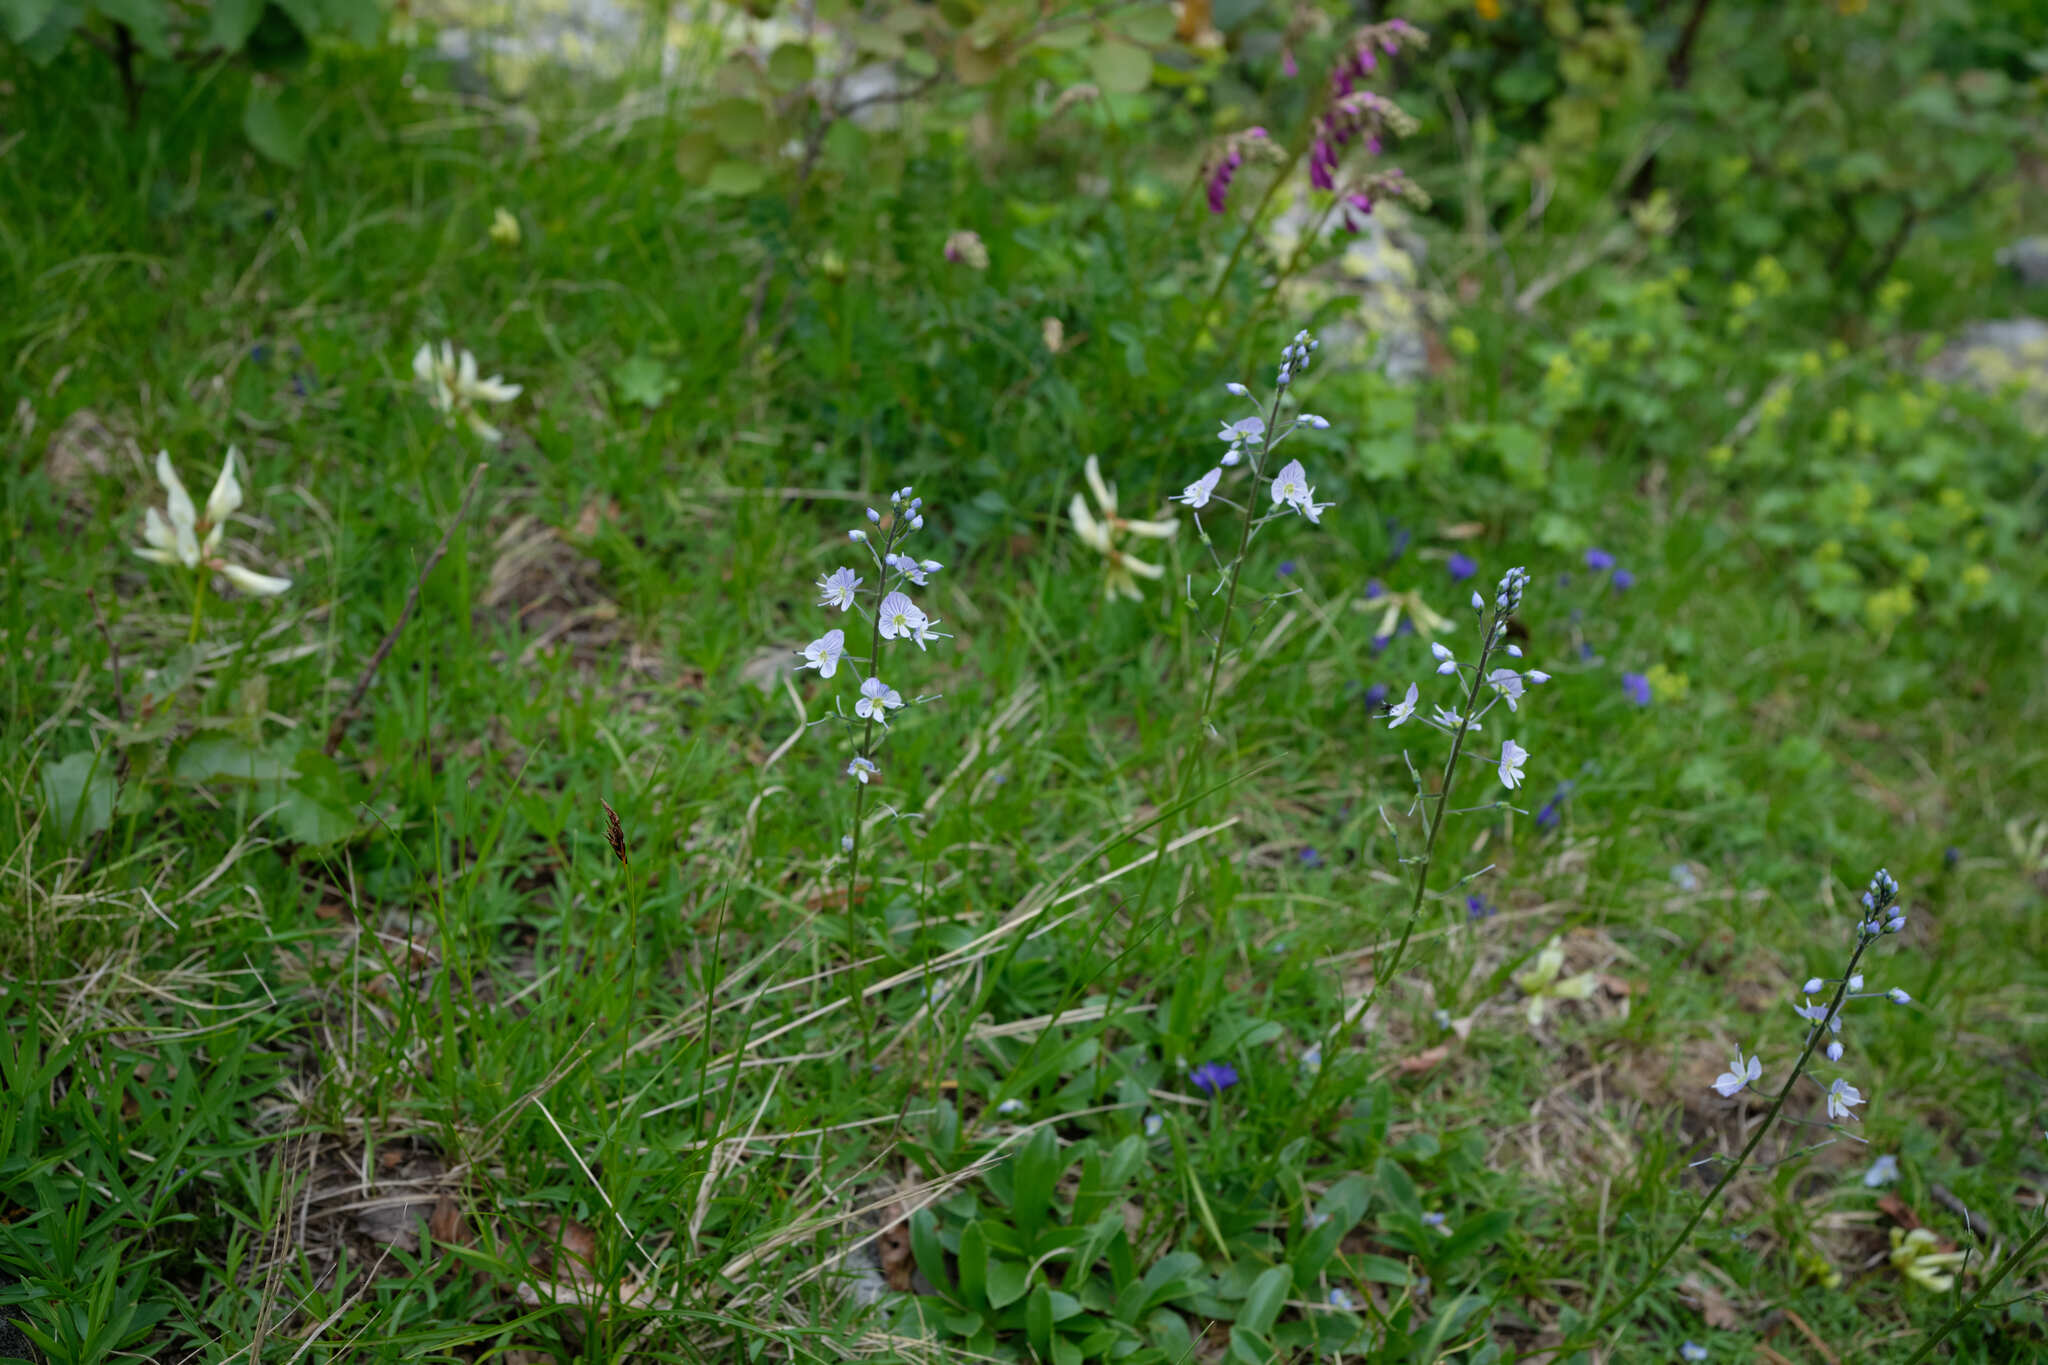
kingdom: Plantae
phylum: Tracheophyta
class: Magnoliopsida
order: Lamiales
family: Plantaginaceae
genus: Veronica
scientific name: Veronica gentianoides
